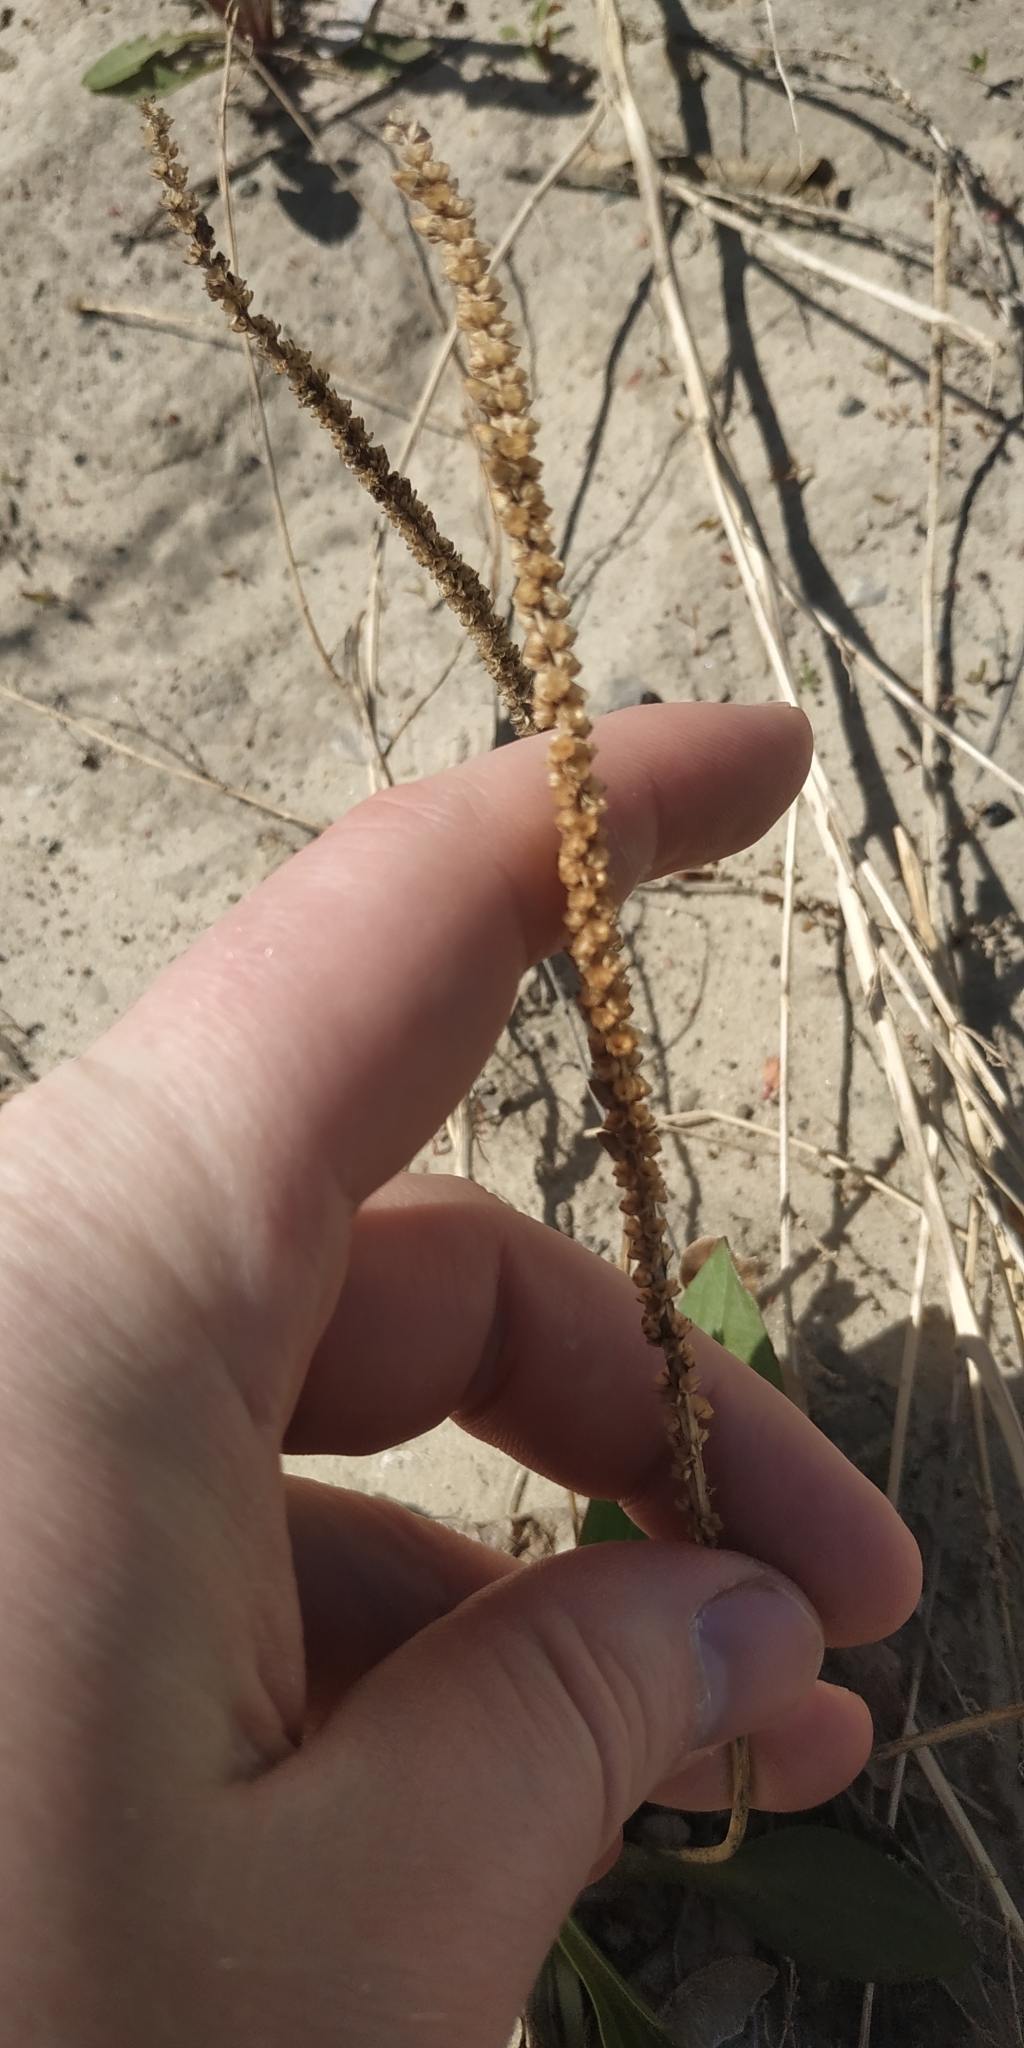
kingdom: Plantae
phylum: Tracheophyta
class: Magnoliopsida
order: Lamiales
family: Plantaginaceae
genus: Plantago
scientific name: Plantago depressa
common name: Depressed plantain
